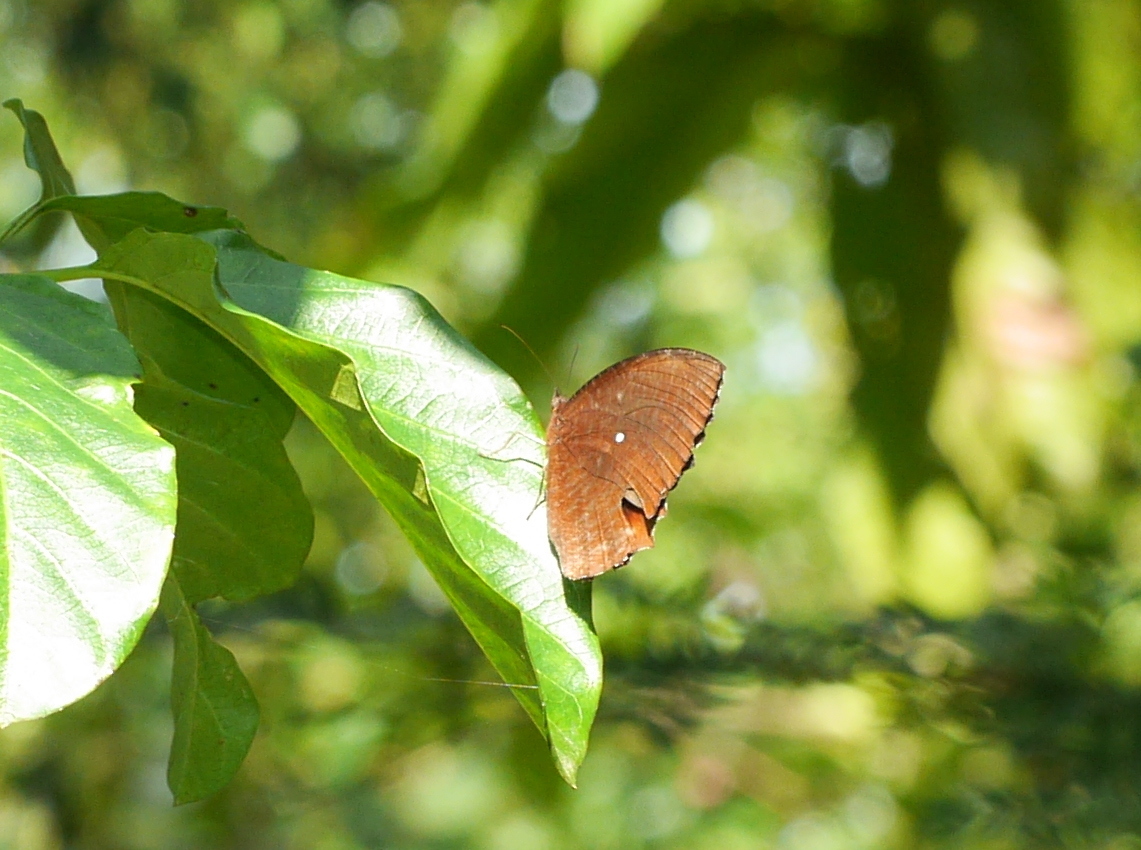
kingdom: Animalia
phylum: Arthropoda
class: Insecta
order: Lepidoptera
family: Nymphalidae
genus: Elymnias
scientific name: Elymnias hypermnestra
